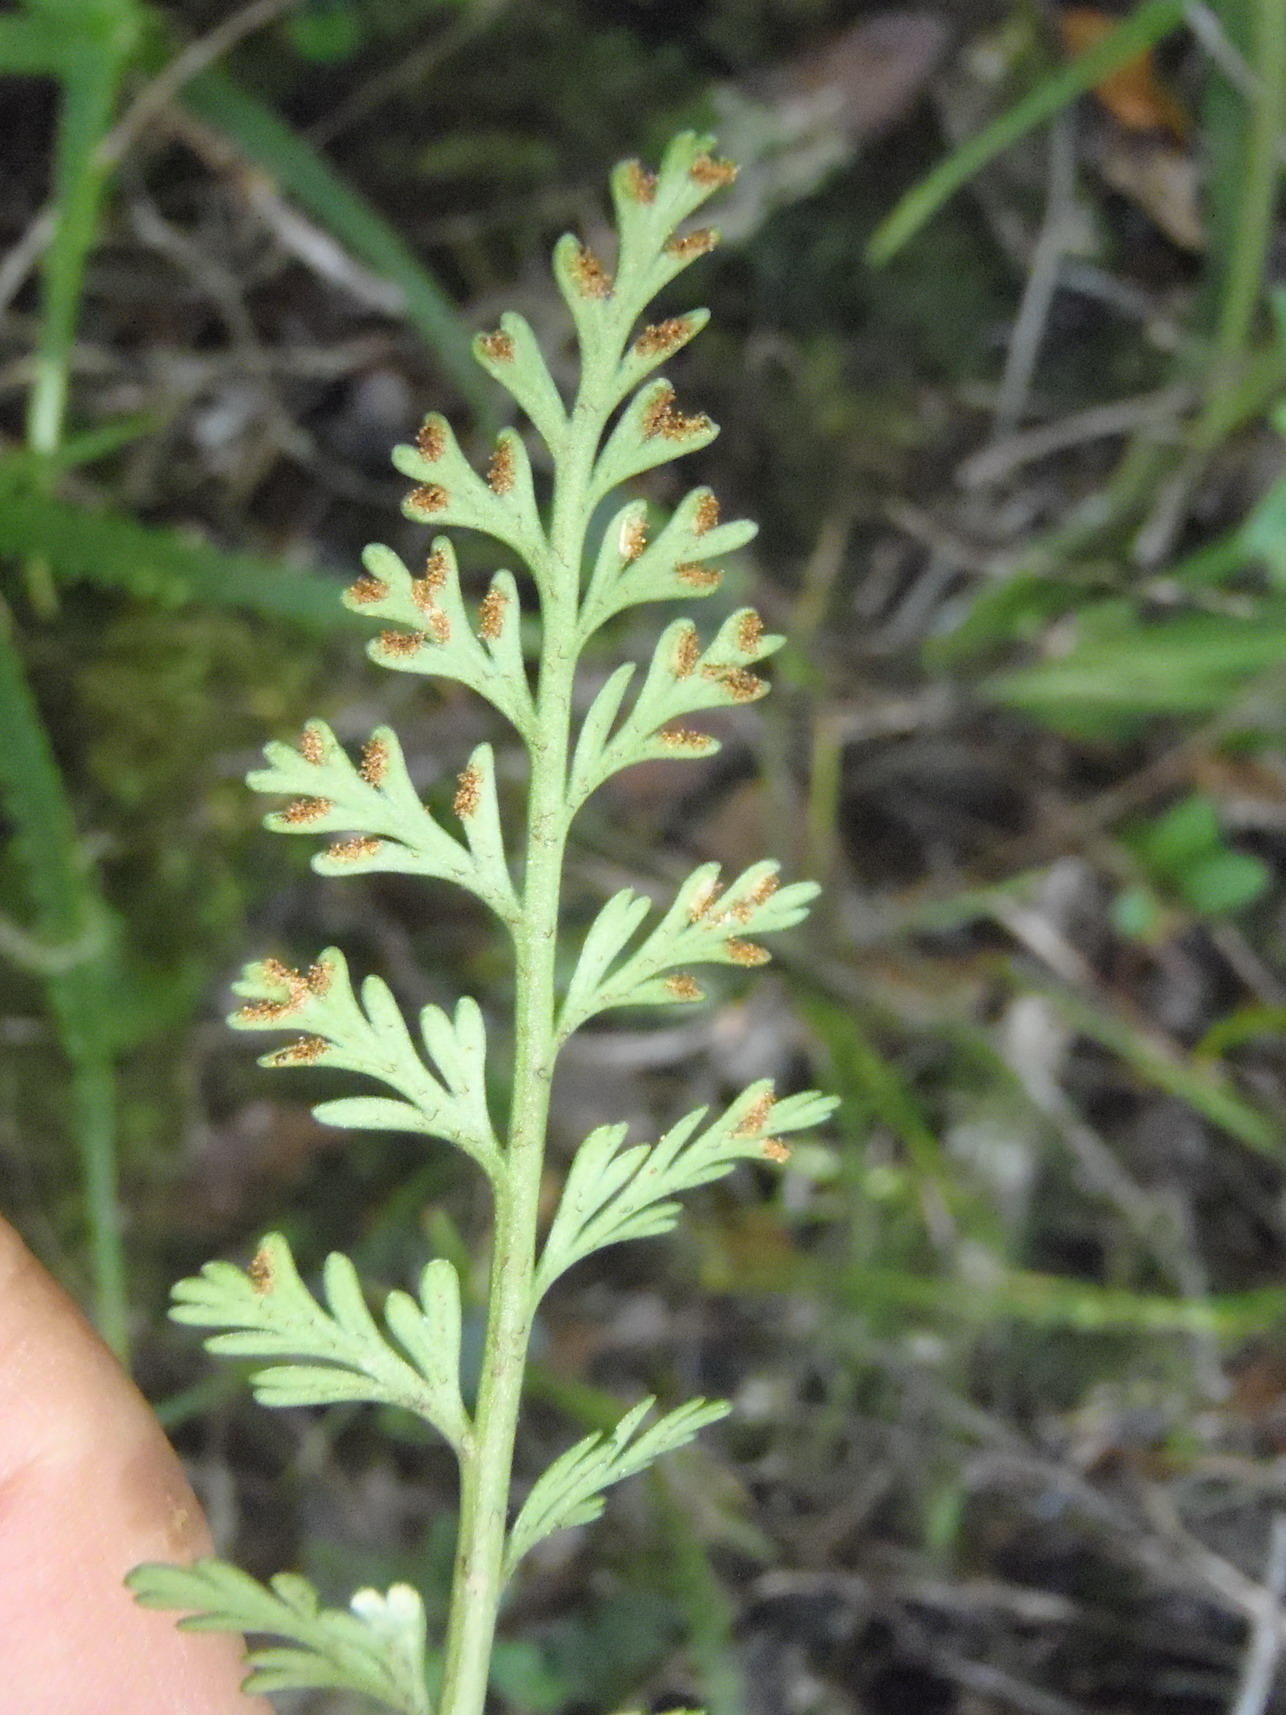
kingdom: Plantae
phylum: Tracheophyta
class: Polypodiopsida
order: Polypodiales
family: Aspleniaceae
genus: Asplenium
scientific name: Asplenium rutifolium
